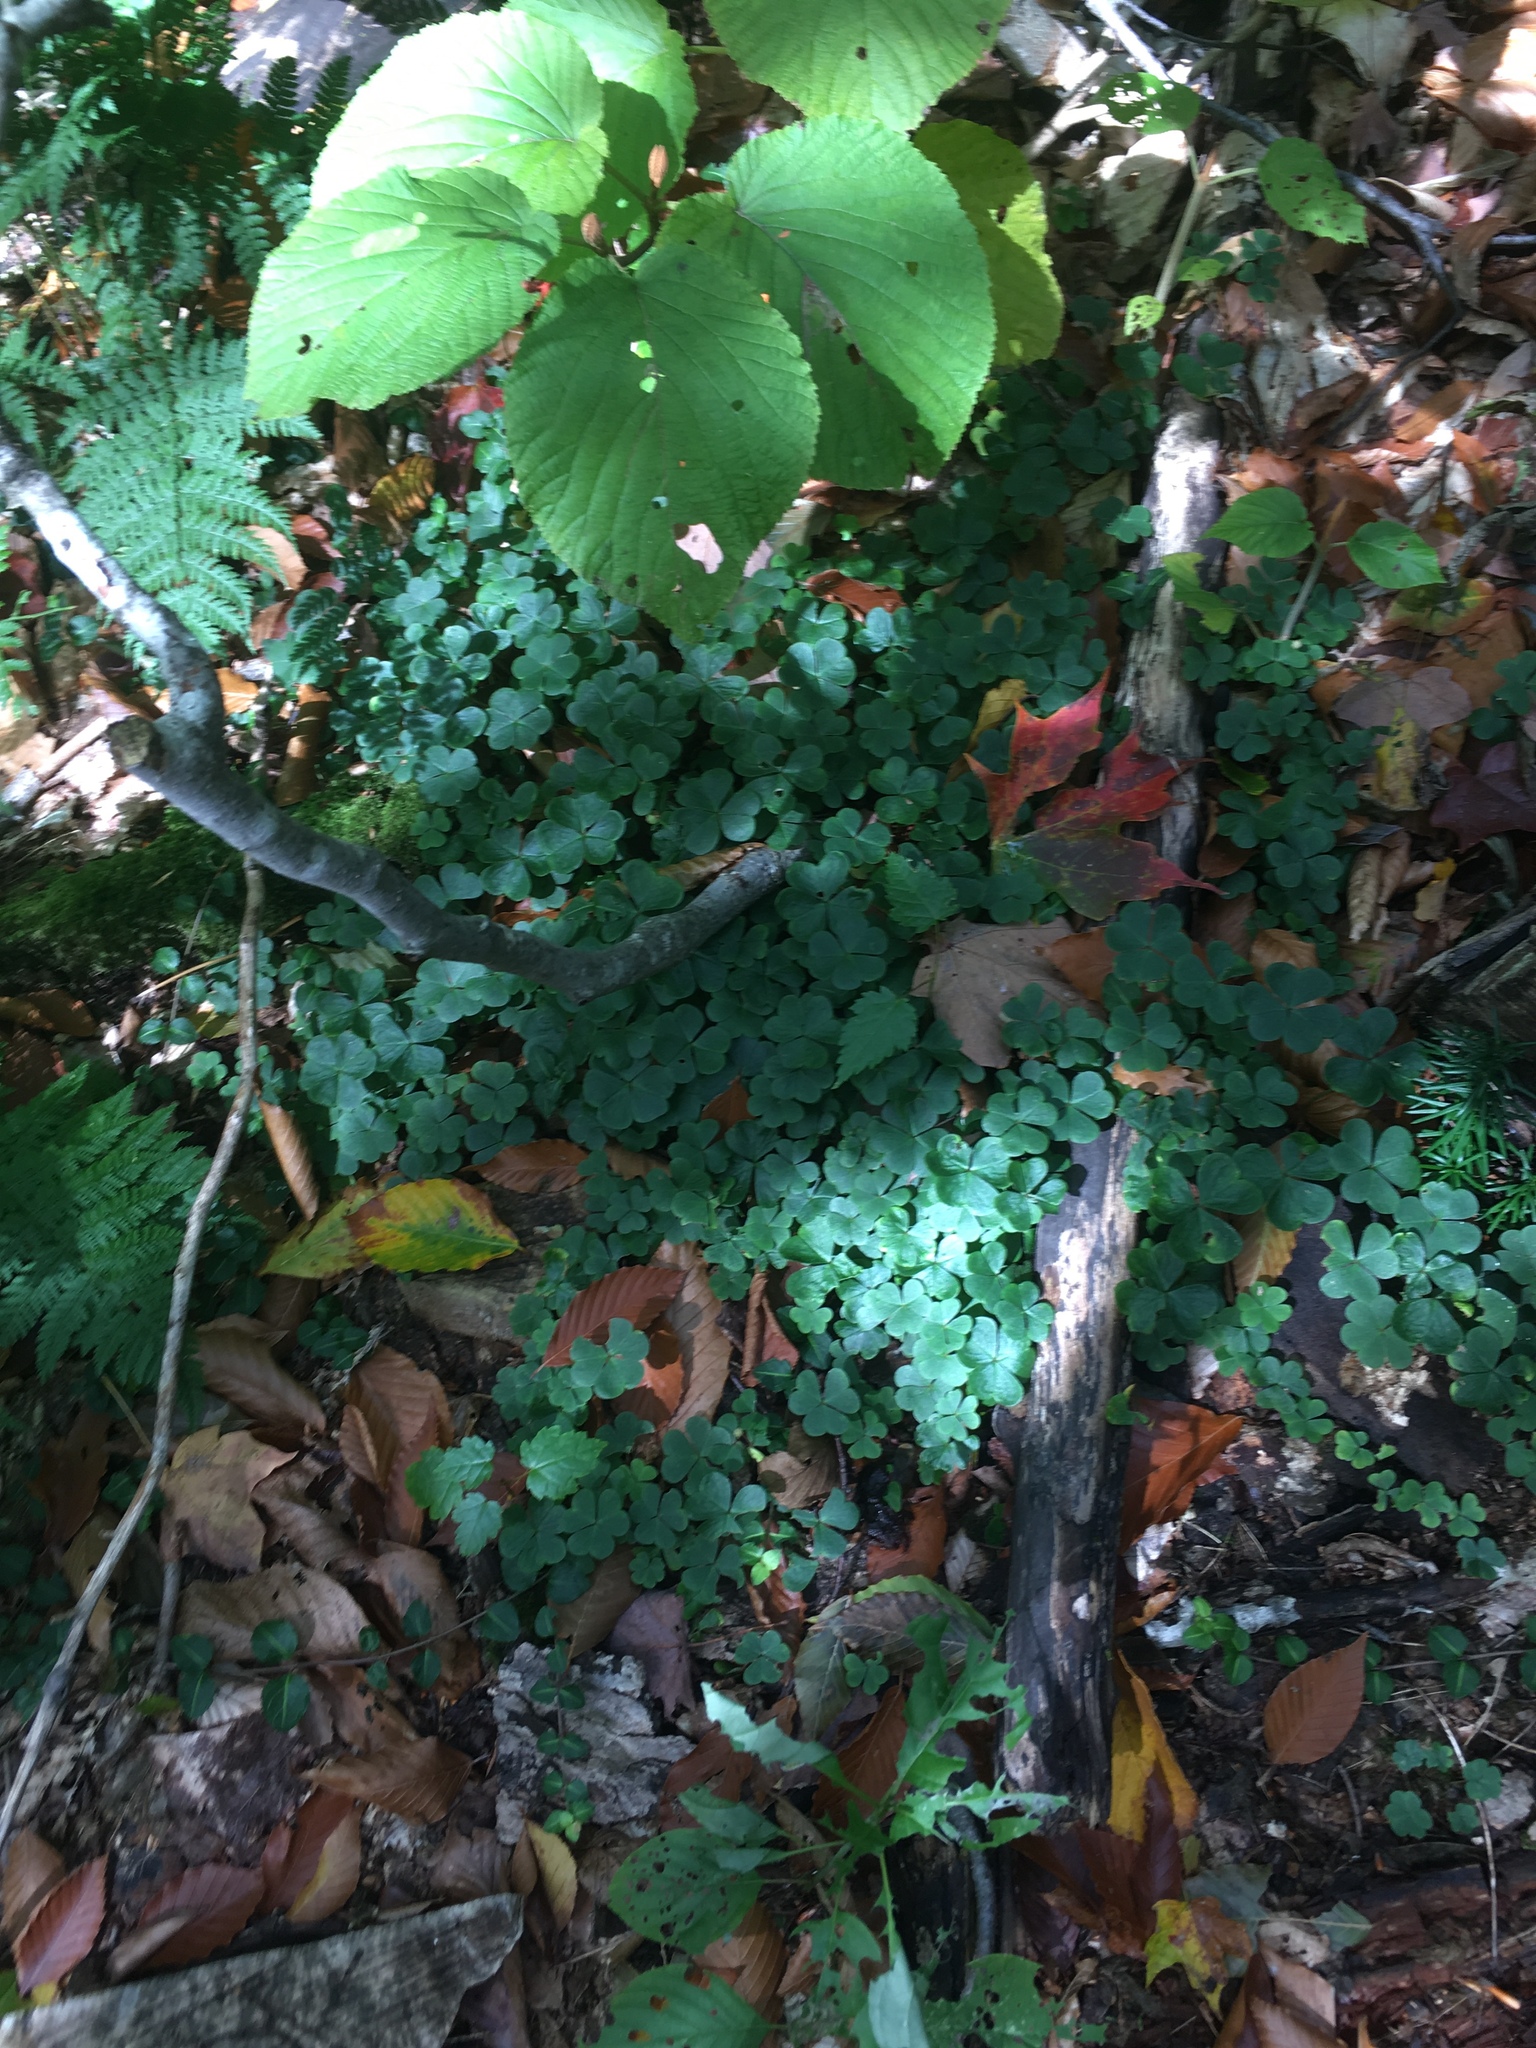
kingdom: Plantae
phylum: Tracheophyta
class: Magnoliopsida
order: Oxalidales
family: Oxalidaceae
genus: Oxalis
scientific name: Oxalis montana
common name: American wood-sorrel
